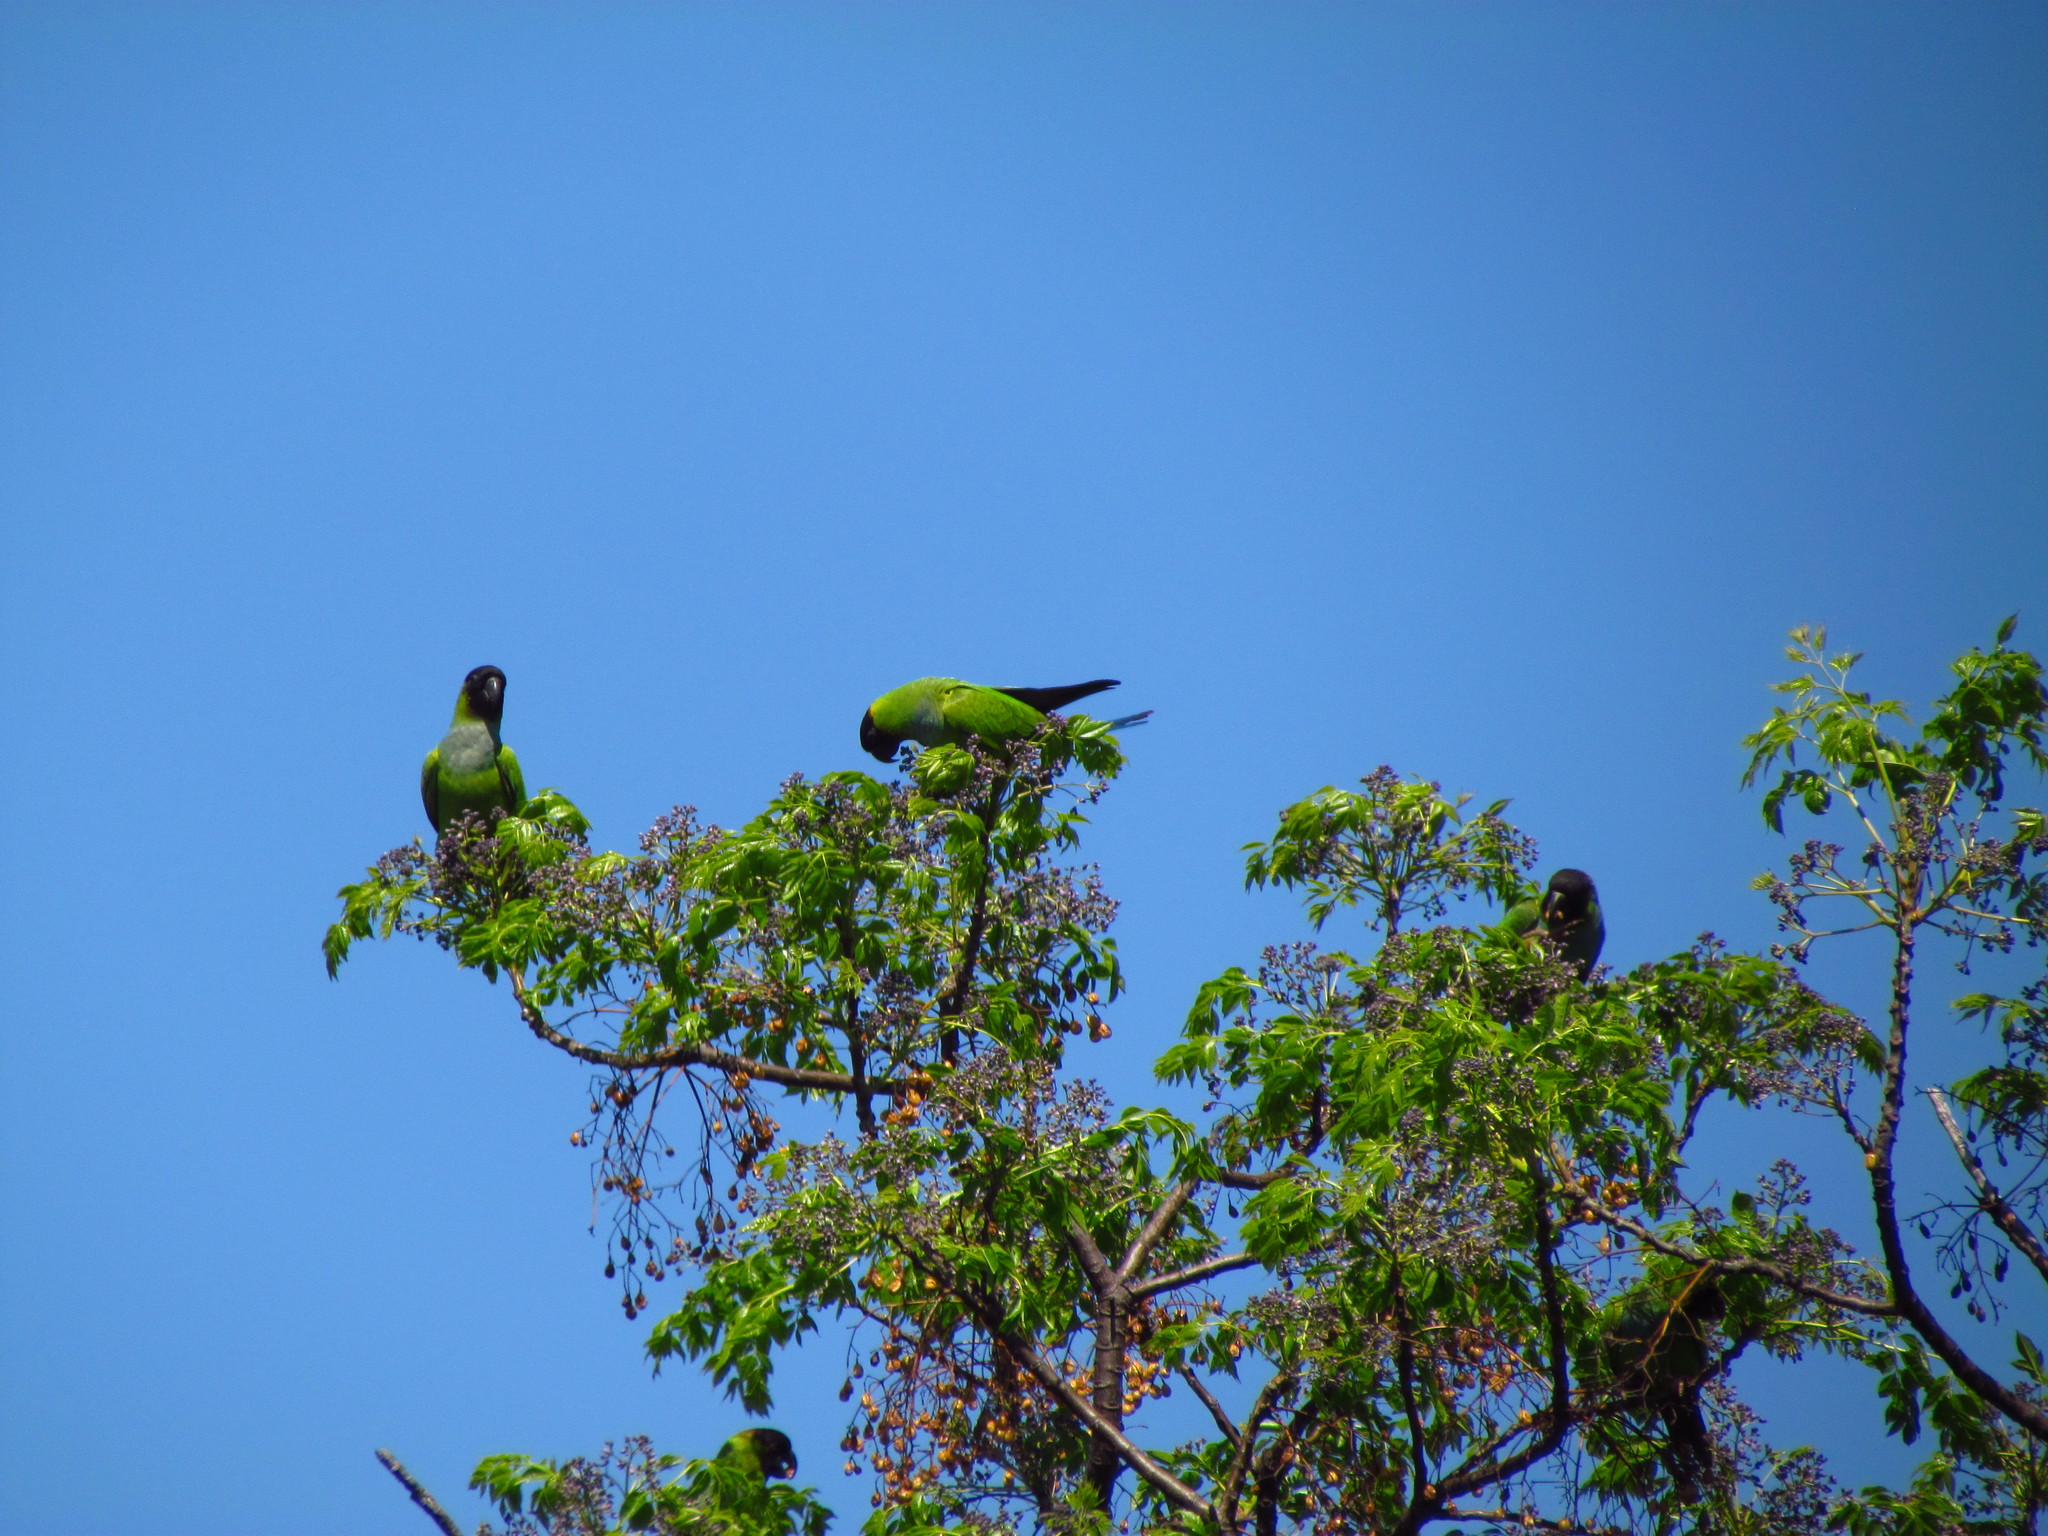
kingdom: Animalia
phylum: Chordata
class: Aves
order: Psittaciformes
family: Psittacidae
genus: Nandayus
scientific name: Nandayus nenday
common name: Nanday parakeet
